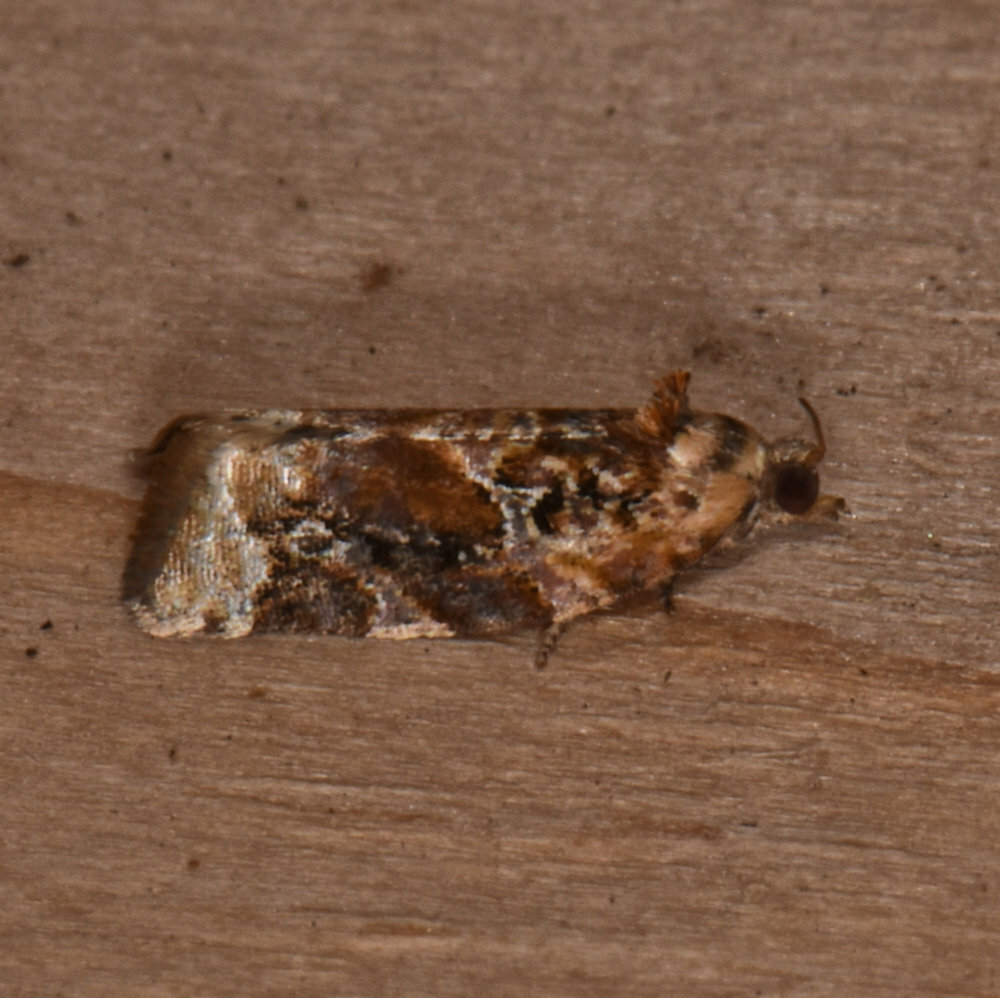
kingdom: Animalia
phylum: Arthropoda
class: Insecta
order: Lepidoptera
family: Tortricidae
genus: Argyrotaenia
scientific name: Argyrotaenia velutinana
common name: Red-banded leafroller moth
